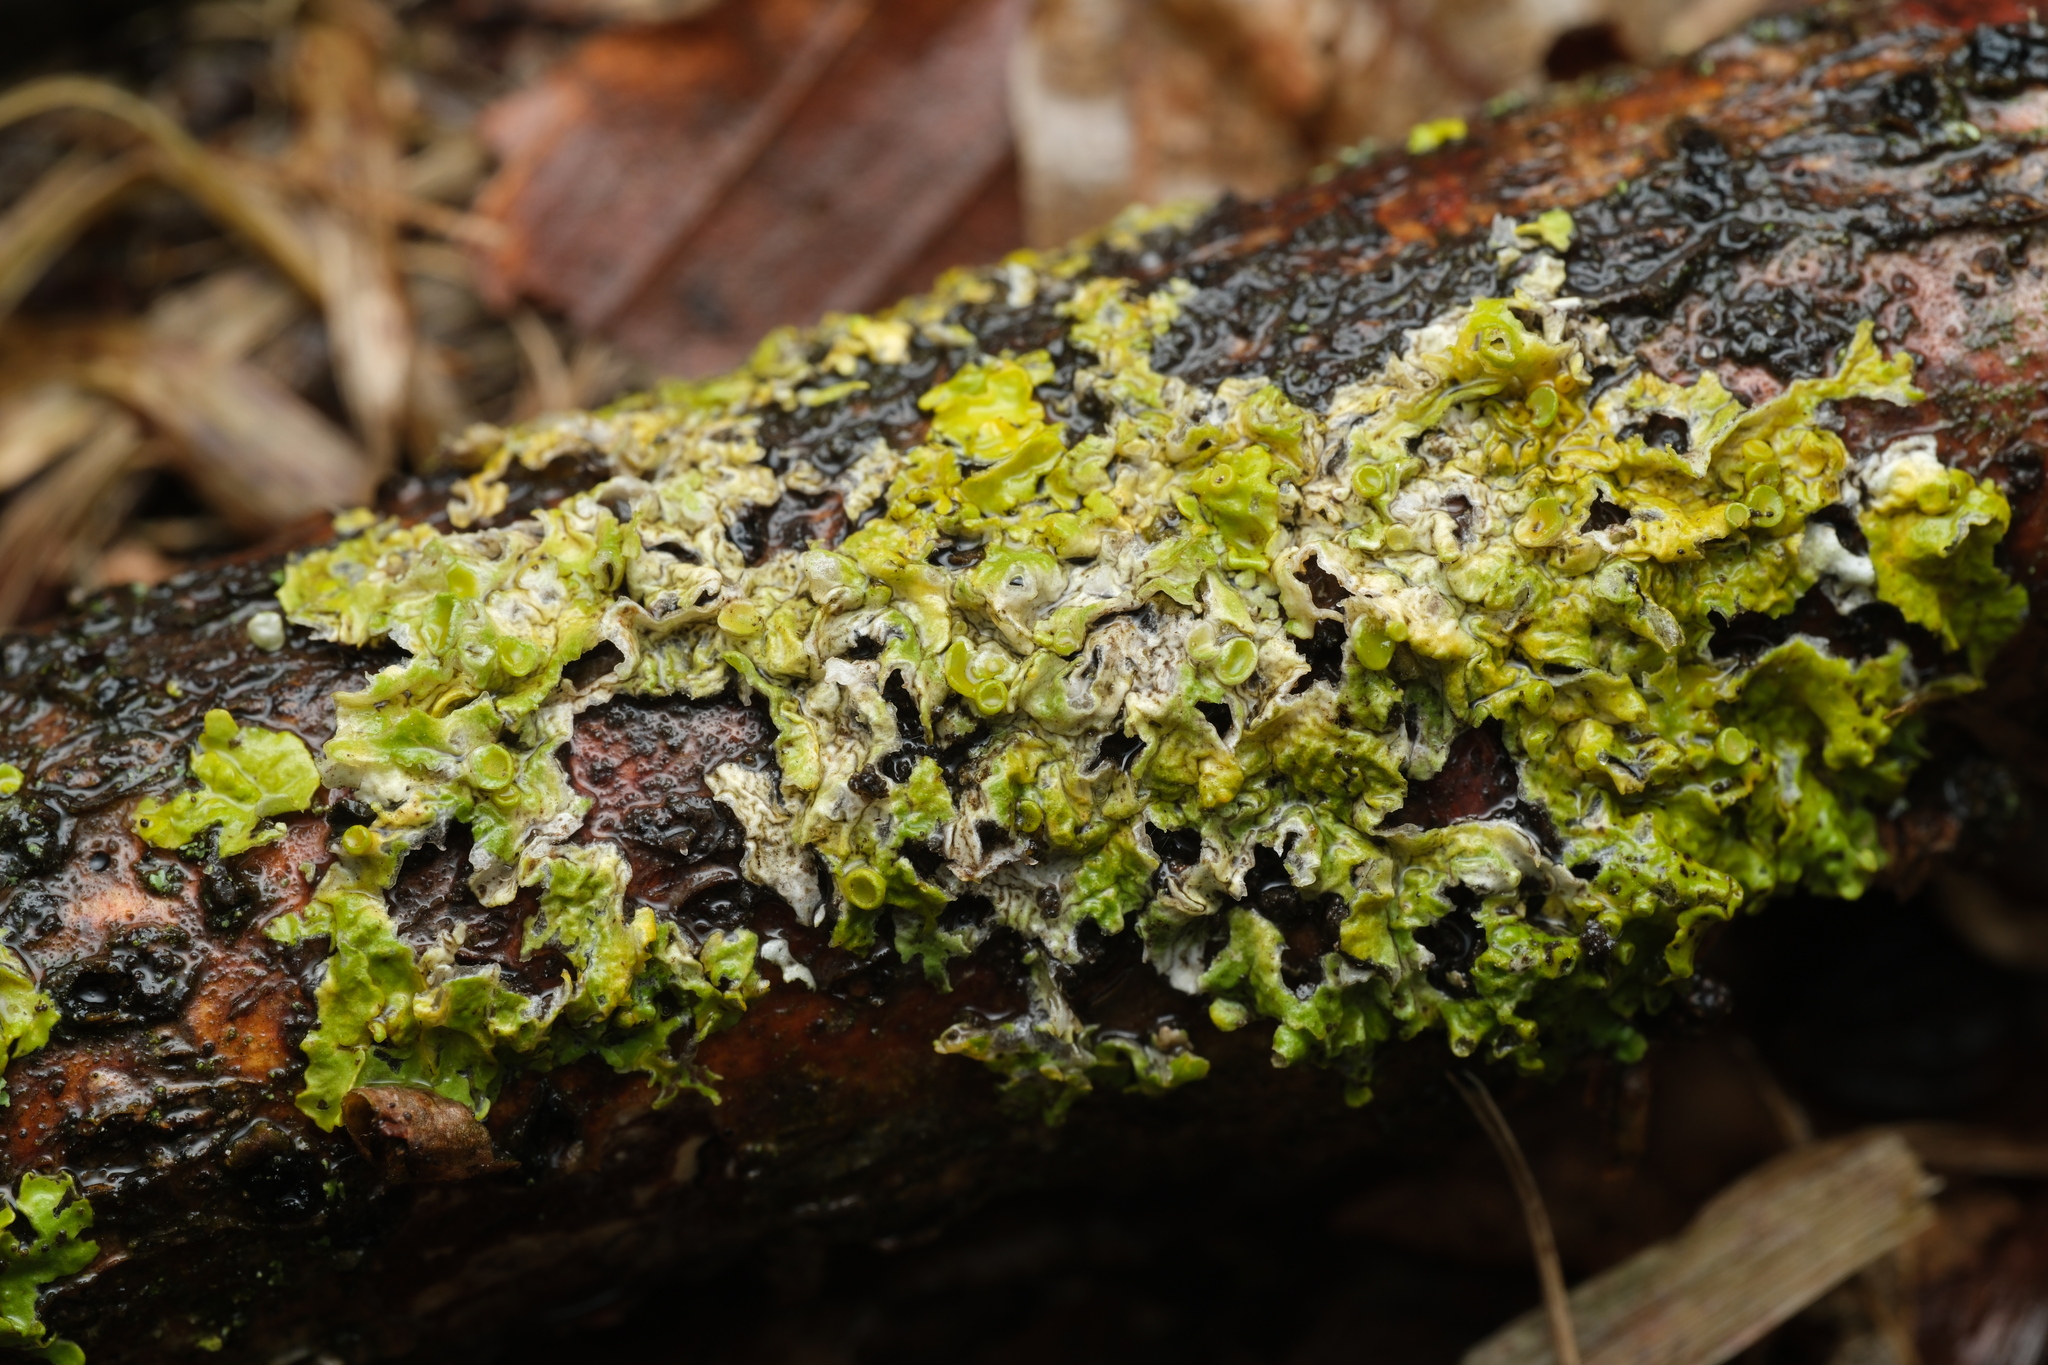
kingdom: Fungi
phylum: Ascomycota
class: Lecanoromycetes
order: Teloschistales
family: Teloschistaceae
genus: Xanthoria
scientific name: Xanthoria parietina
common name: Common orange lichen
